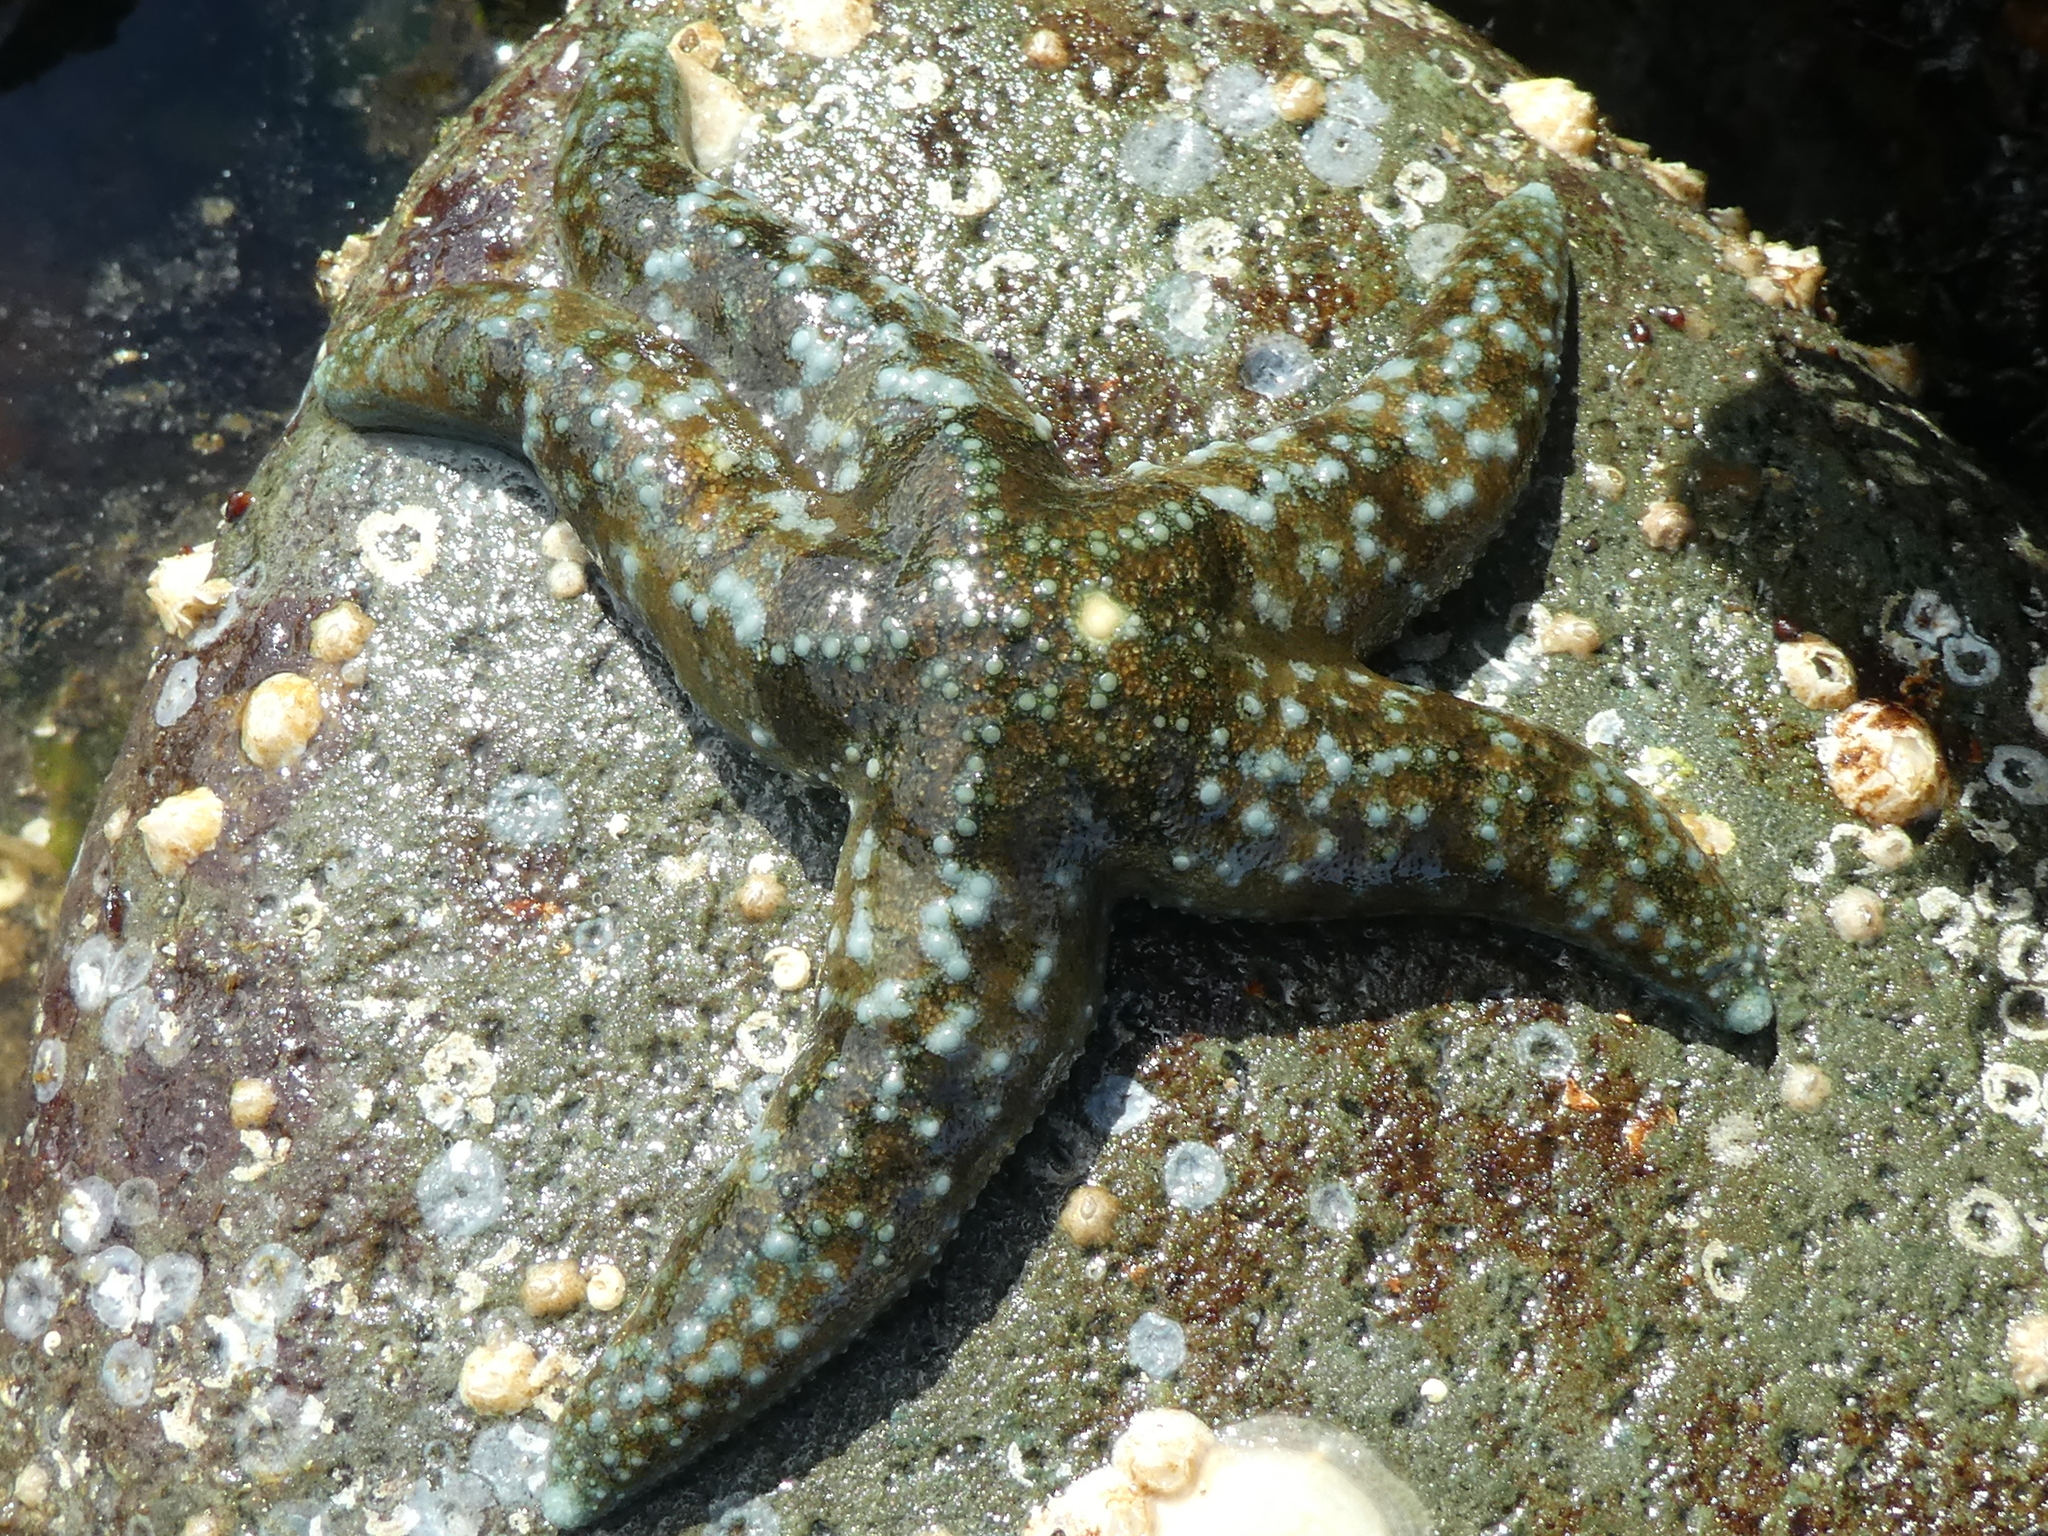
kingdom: Animalia
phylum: Echinodermata
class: Asteroidea
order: Forcipulatida
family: Asteriidae
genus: Evasterias
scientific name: Evasterias troschelii
